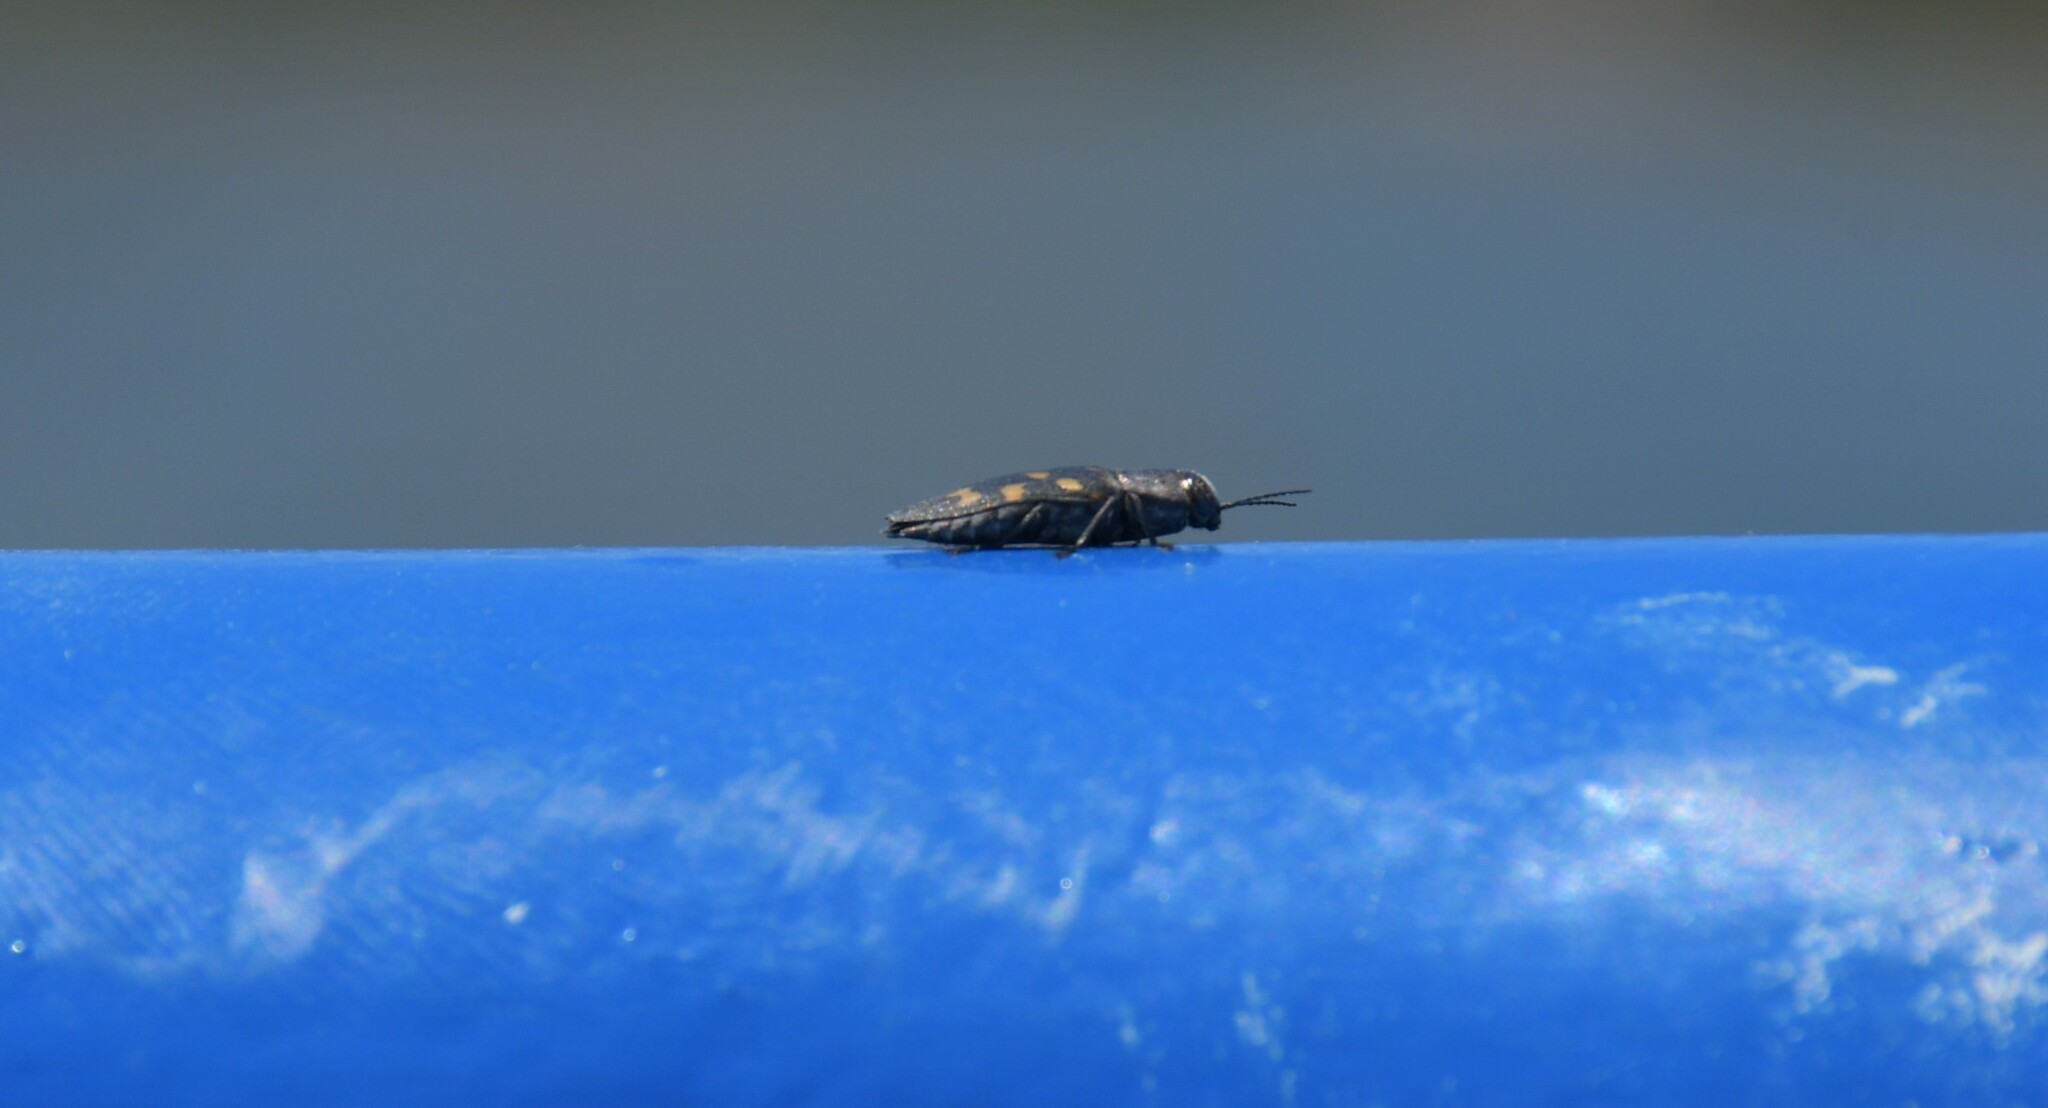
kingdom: Animalia
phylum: Arthropoda
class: Insecta
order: Coleoptera
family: Buprestidae
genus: Buprestis
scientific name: Buprestis novemmaculata
